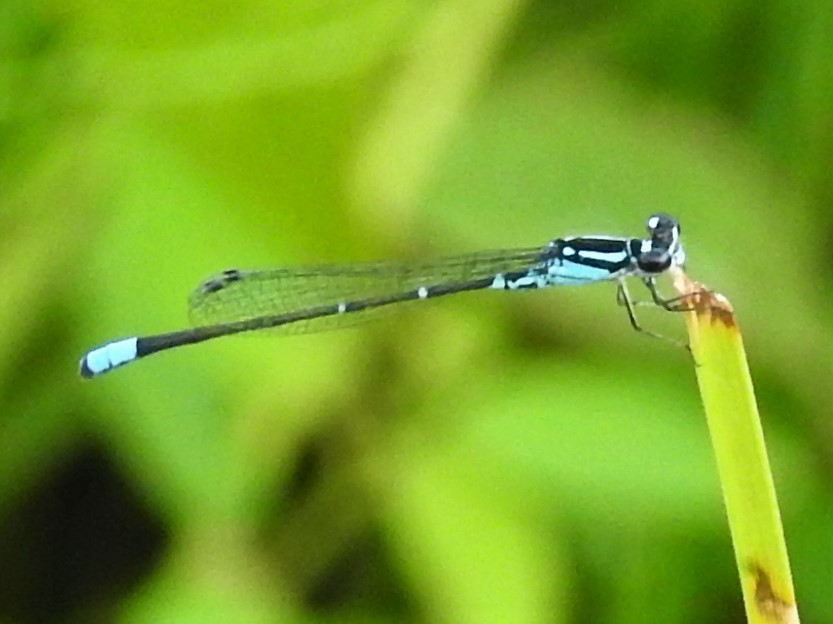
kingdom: Animalia
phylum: Arthropoda
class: Insecta
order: Odonata
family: Coenagrionidae
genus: Enallagma
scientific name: Enallagma geminatum
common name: Skimming bluet
